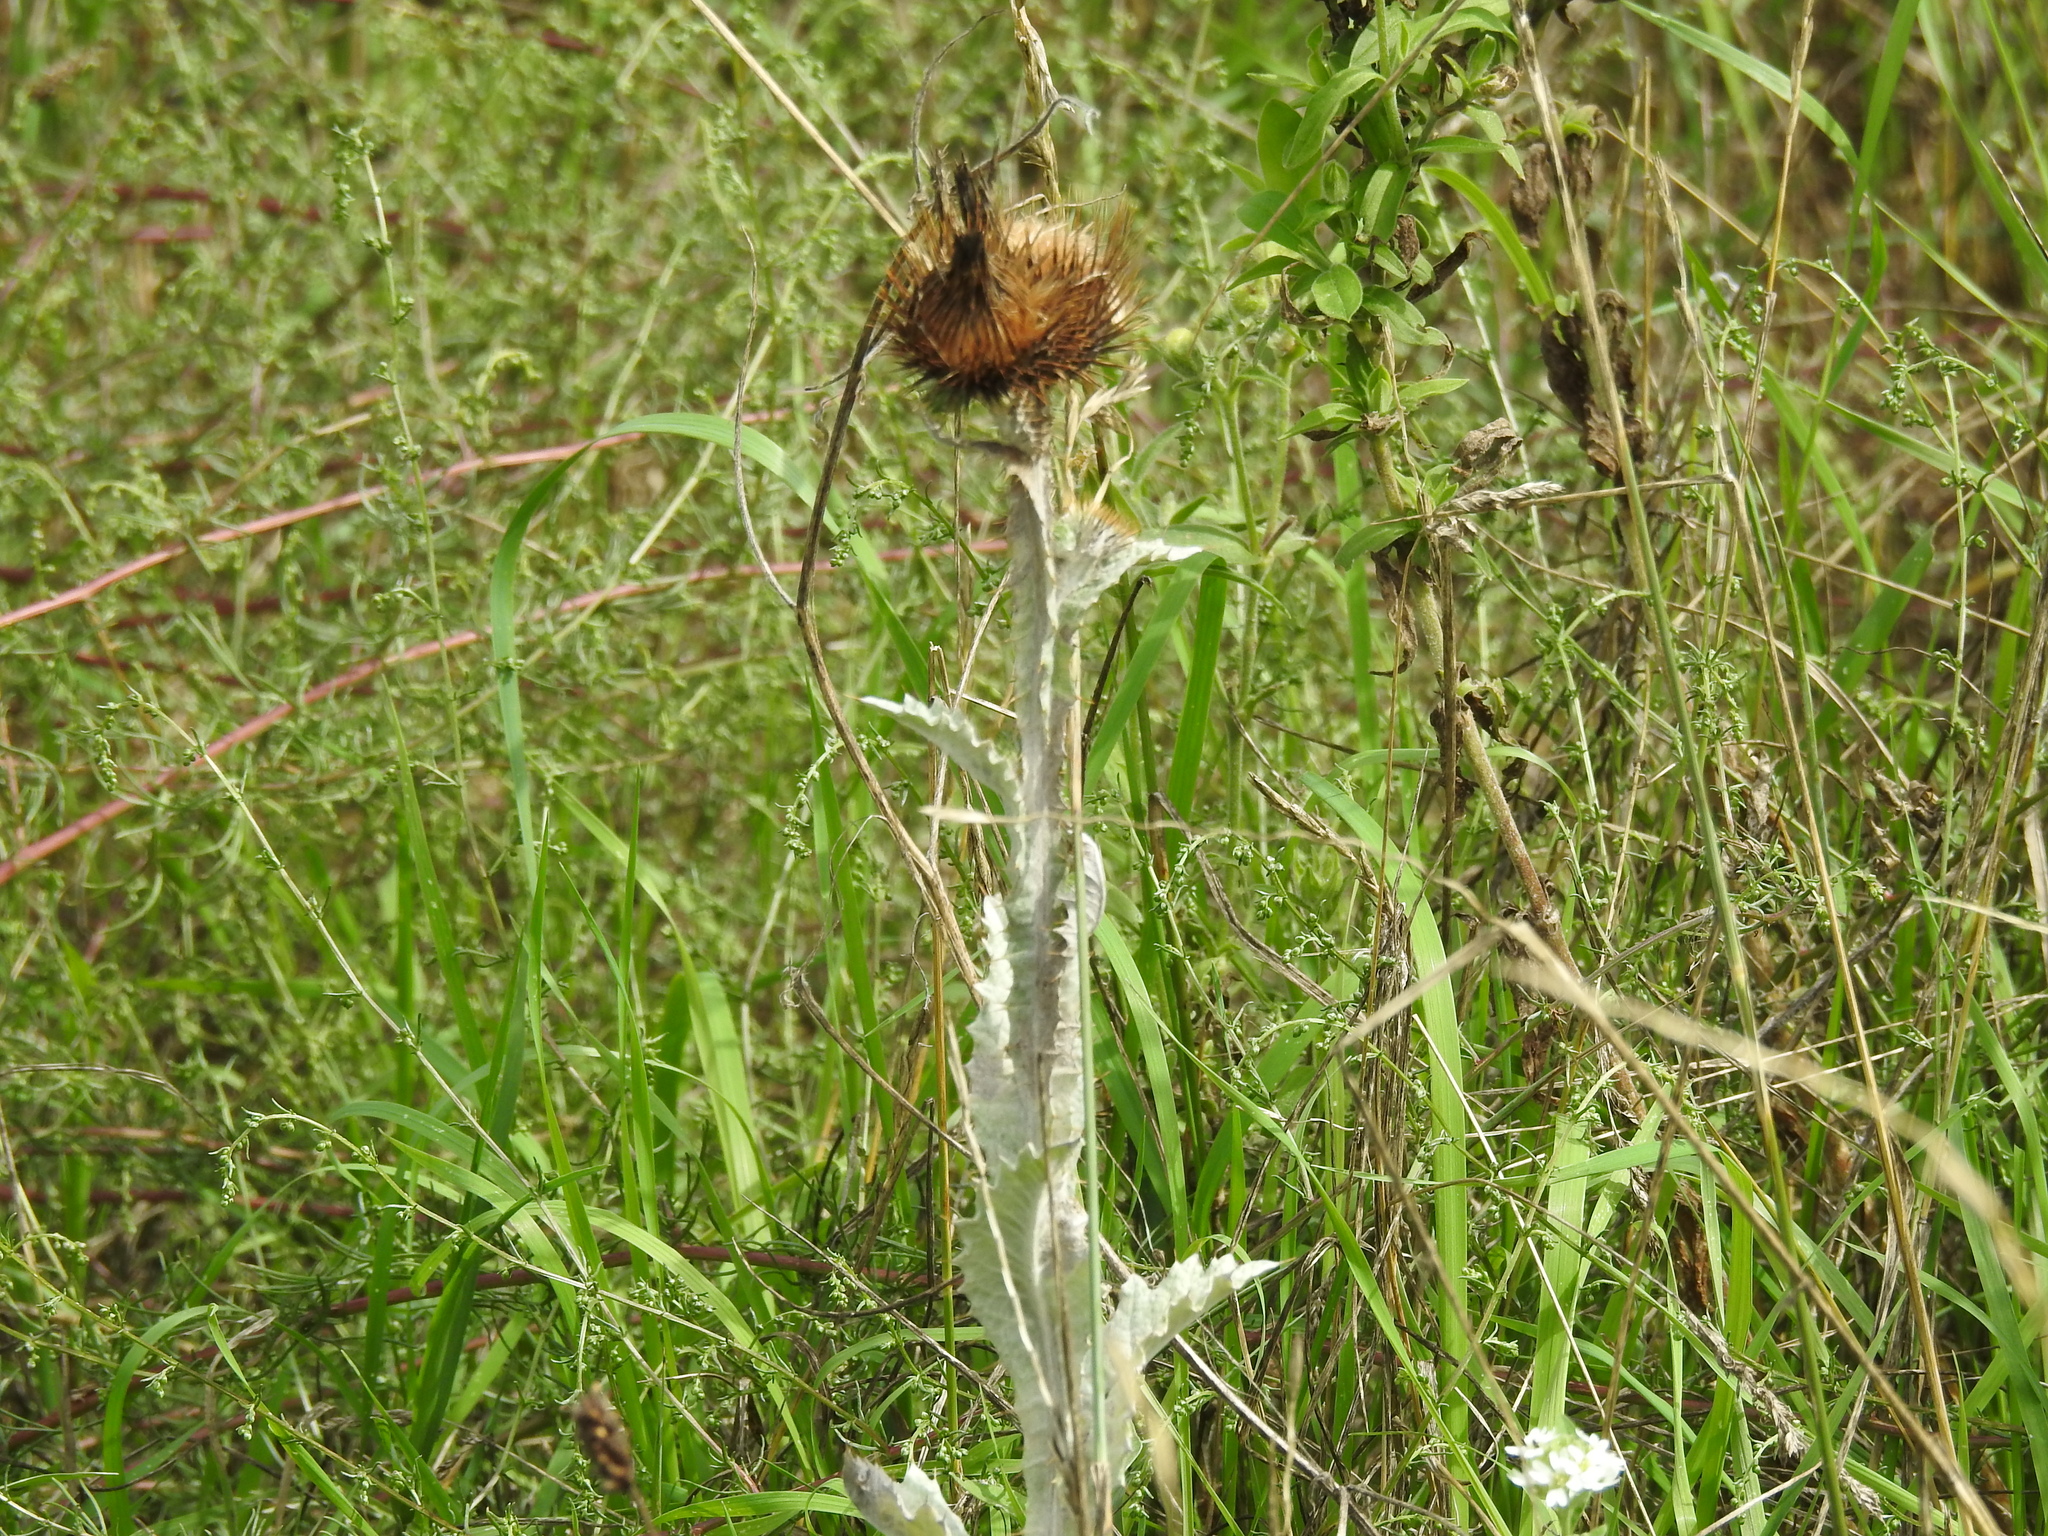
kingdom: Plantae
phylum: Tracheophyta
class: Magnoliopsida
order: Asterales
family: Asteraceae
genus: Onopordum
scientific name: Onopordum acanthium
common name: Scotch thistle
